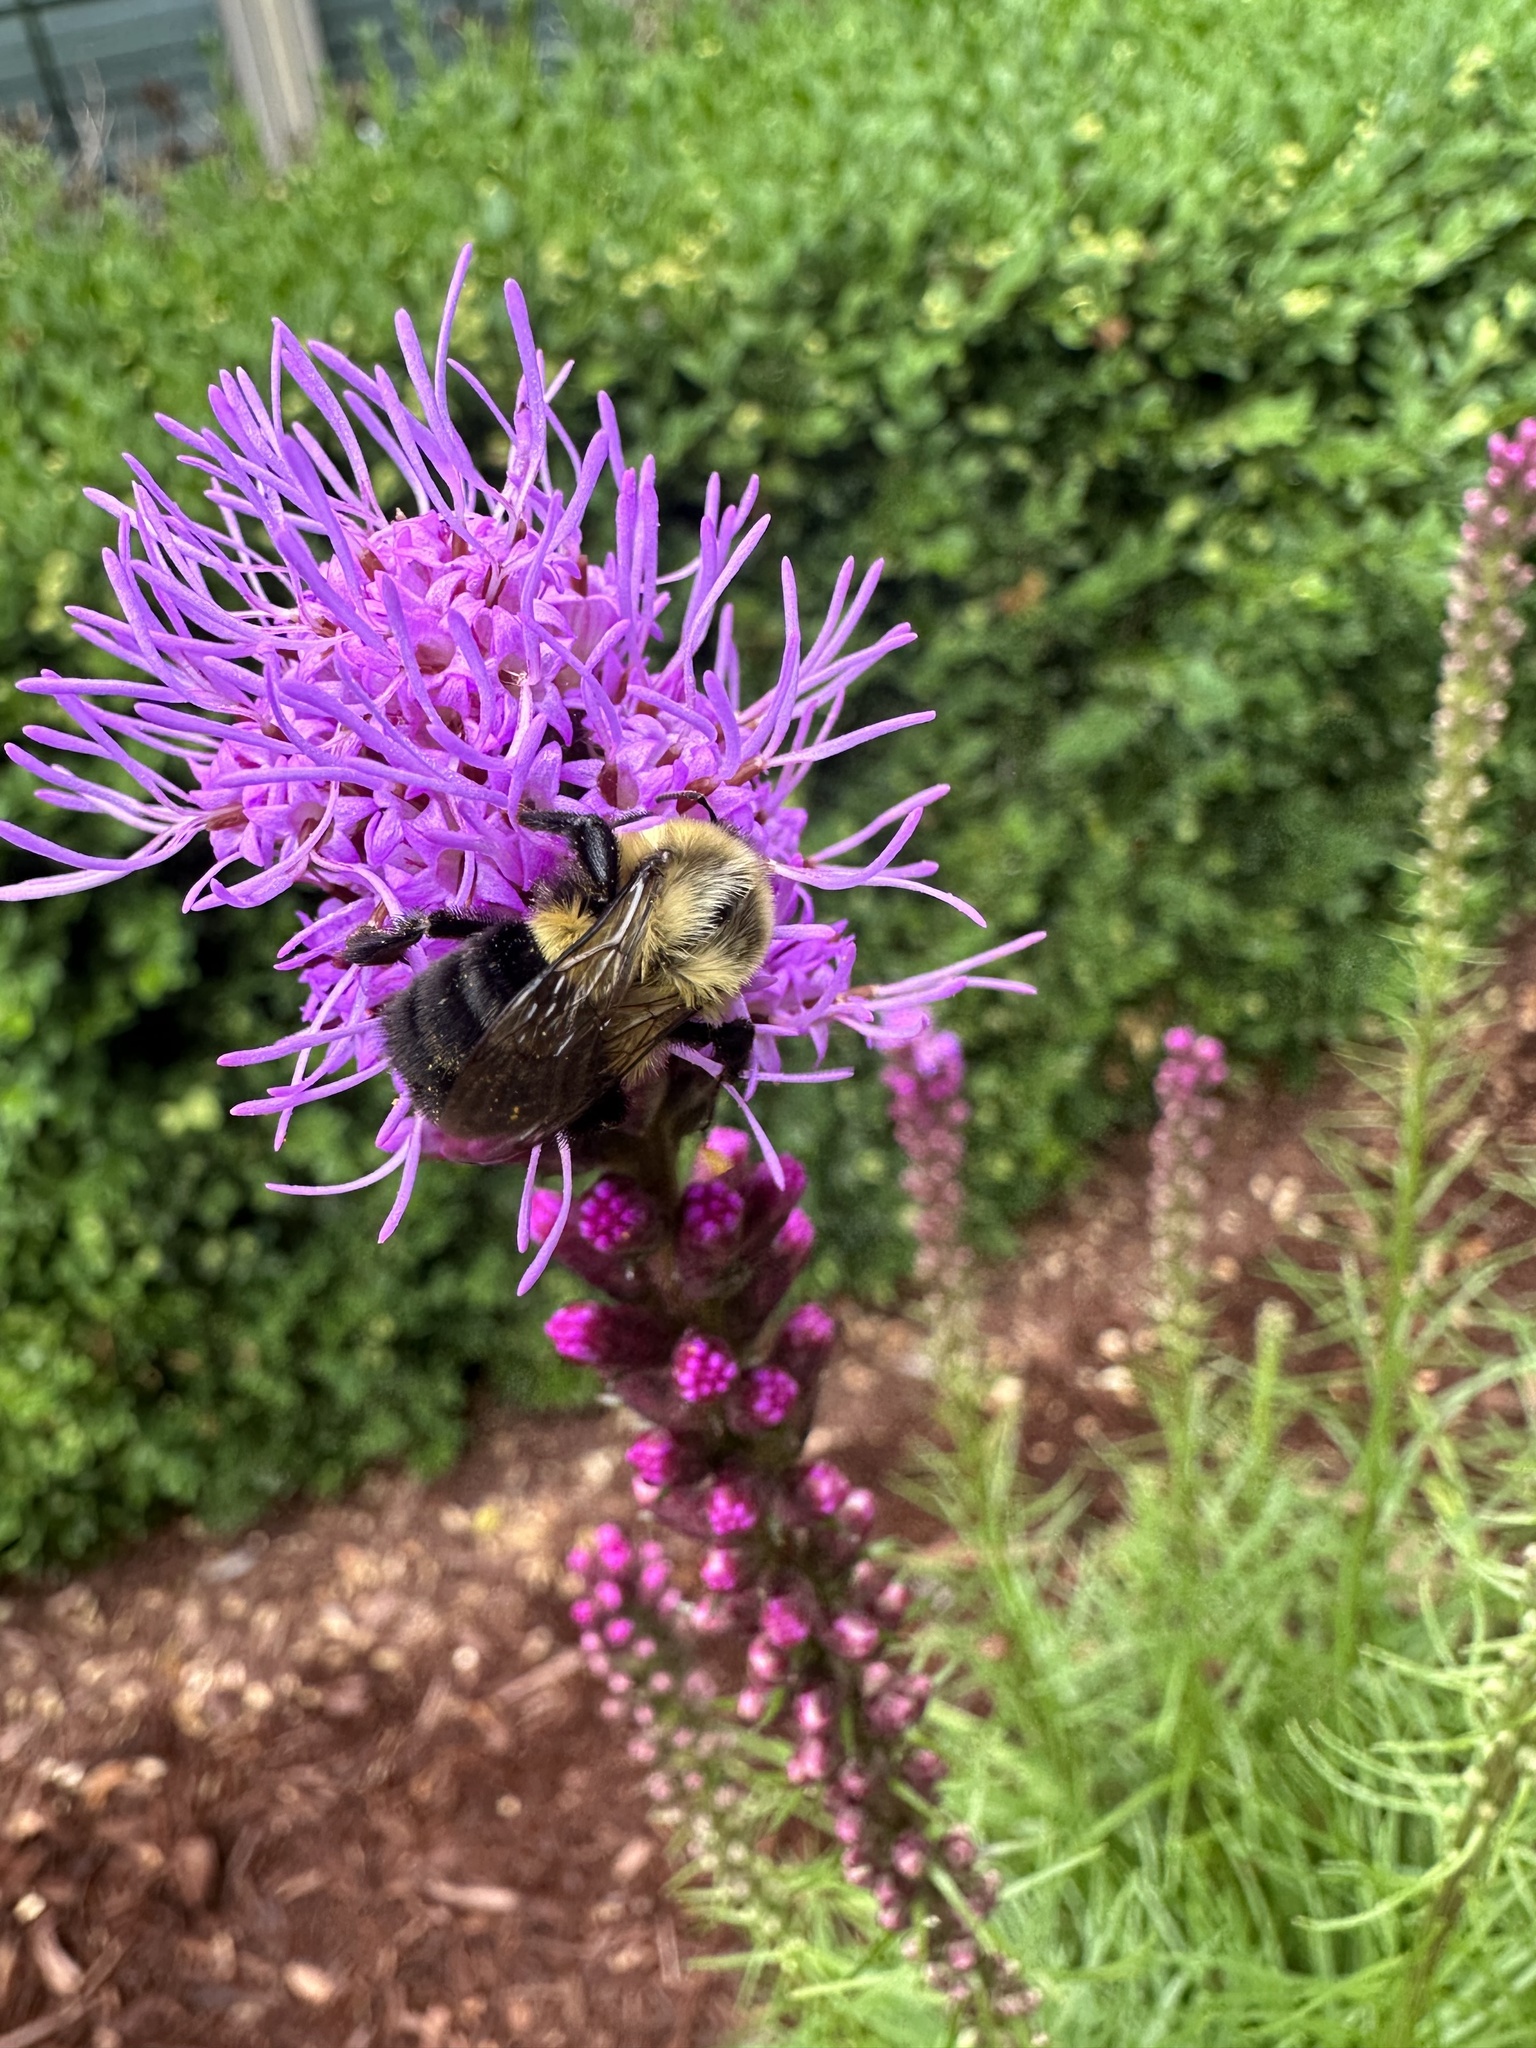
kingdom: Animalia
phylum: Arthropoda
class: Insecta
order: Hymenoptera
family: Apidae
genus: Bombus
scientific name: Bombus impatiens
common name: Common eastern bumble bee
